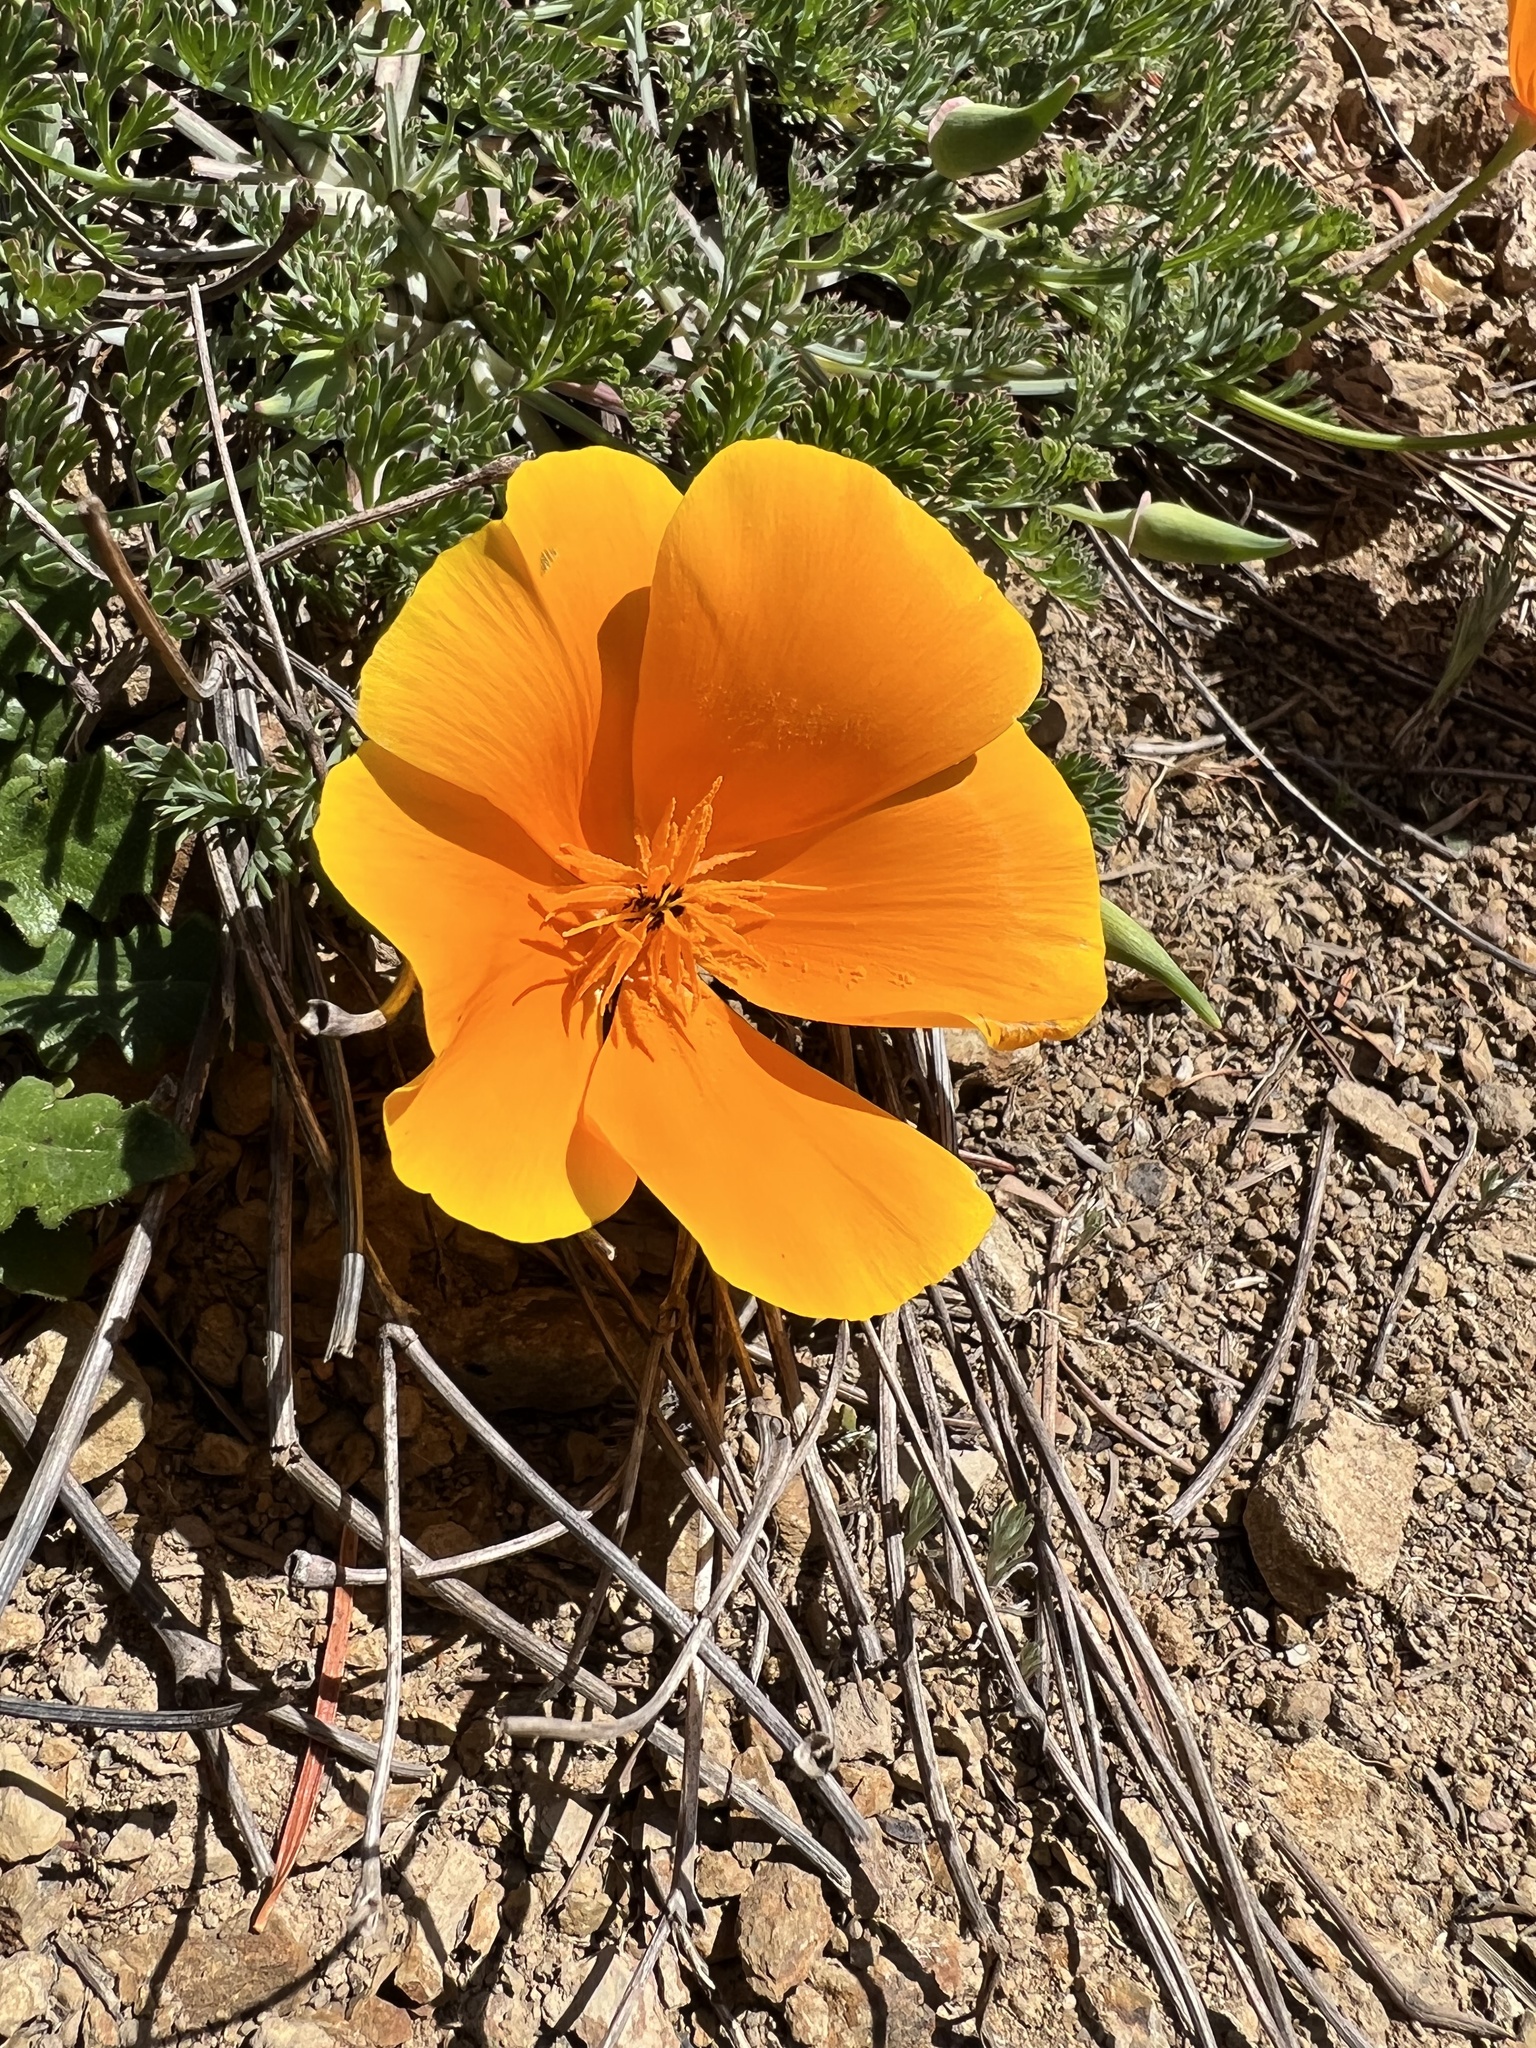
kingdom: Plantae
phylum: Tracheophyta
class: Magnoliopsida
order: Ranunculales
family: Papaveraceae
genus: Eschscholzia
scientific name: Eschscholzia californica
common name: California poppy
